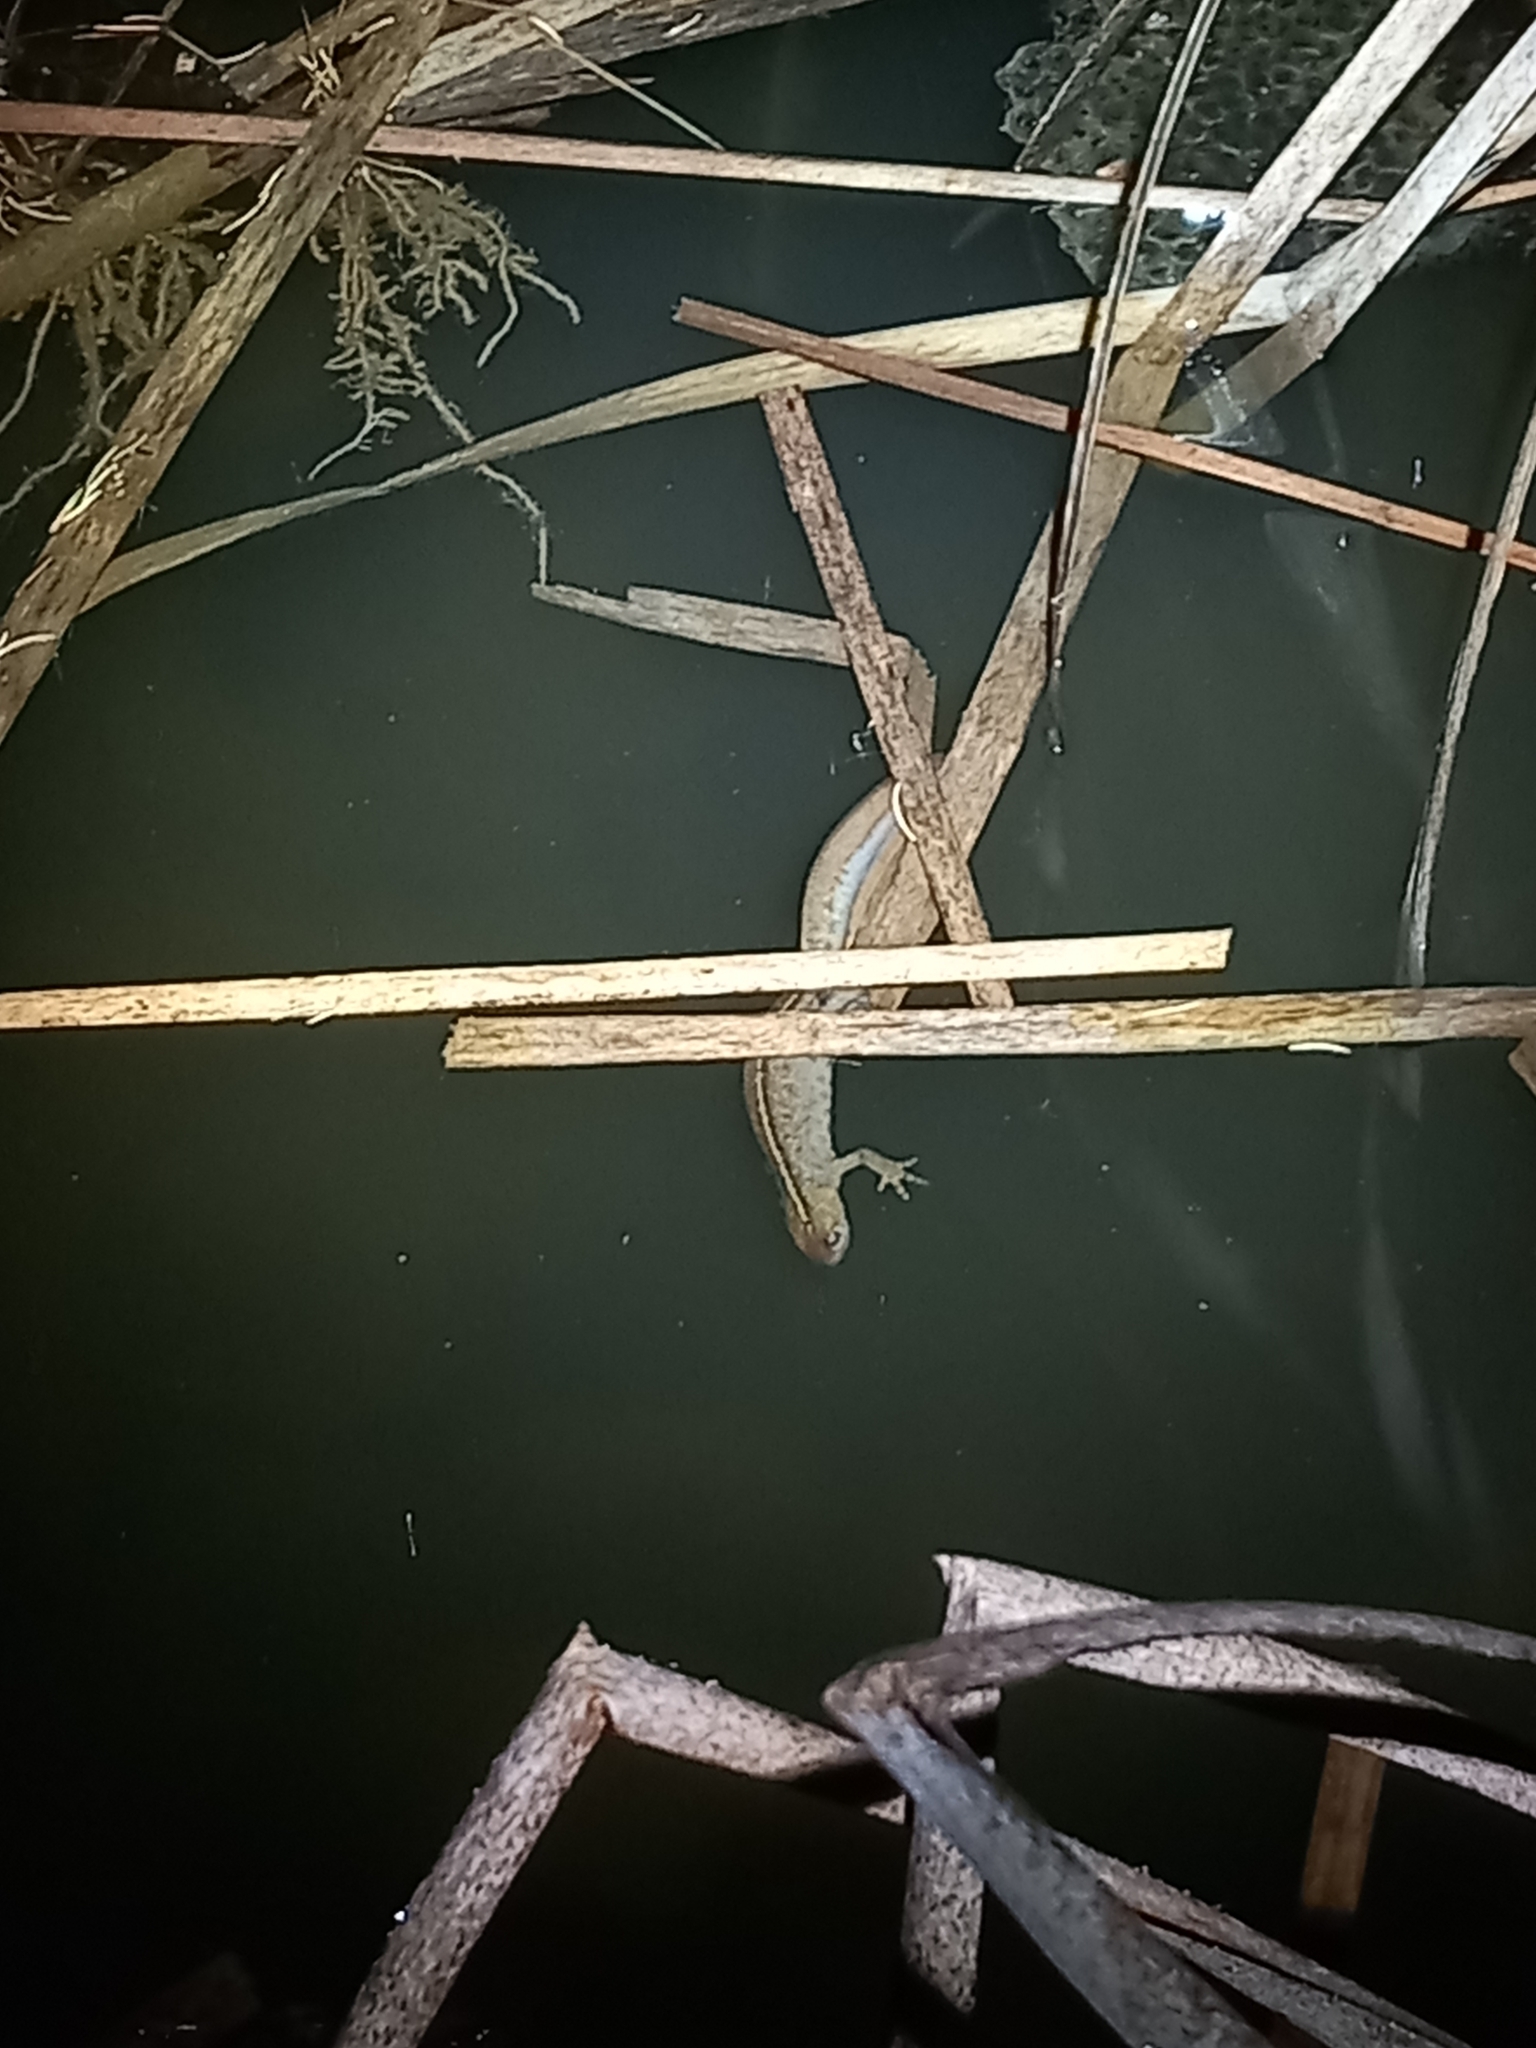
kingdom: Animalia
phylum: Chordata
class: Amphibia
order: Caudata
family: Salamandridae
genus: Triturus
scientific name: Triturus carnifex
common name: Italian crested newt
